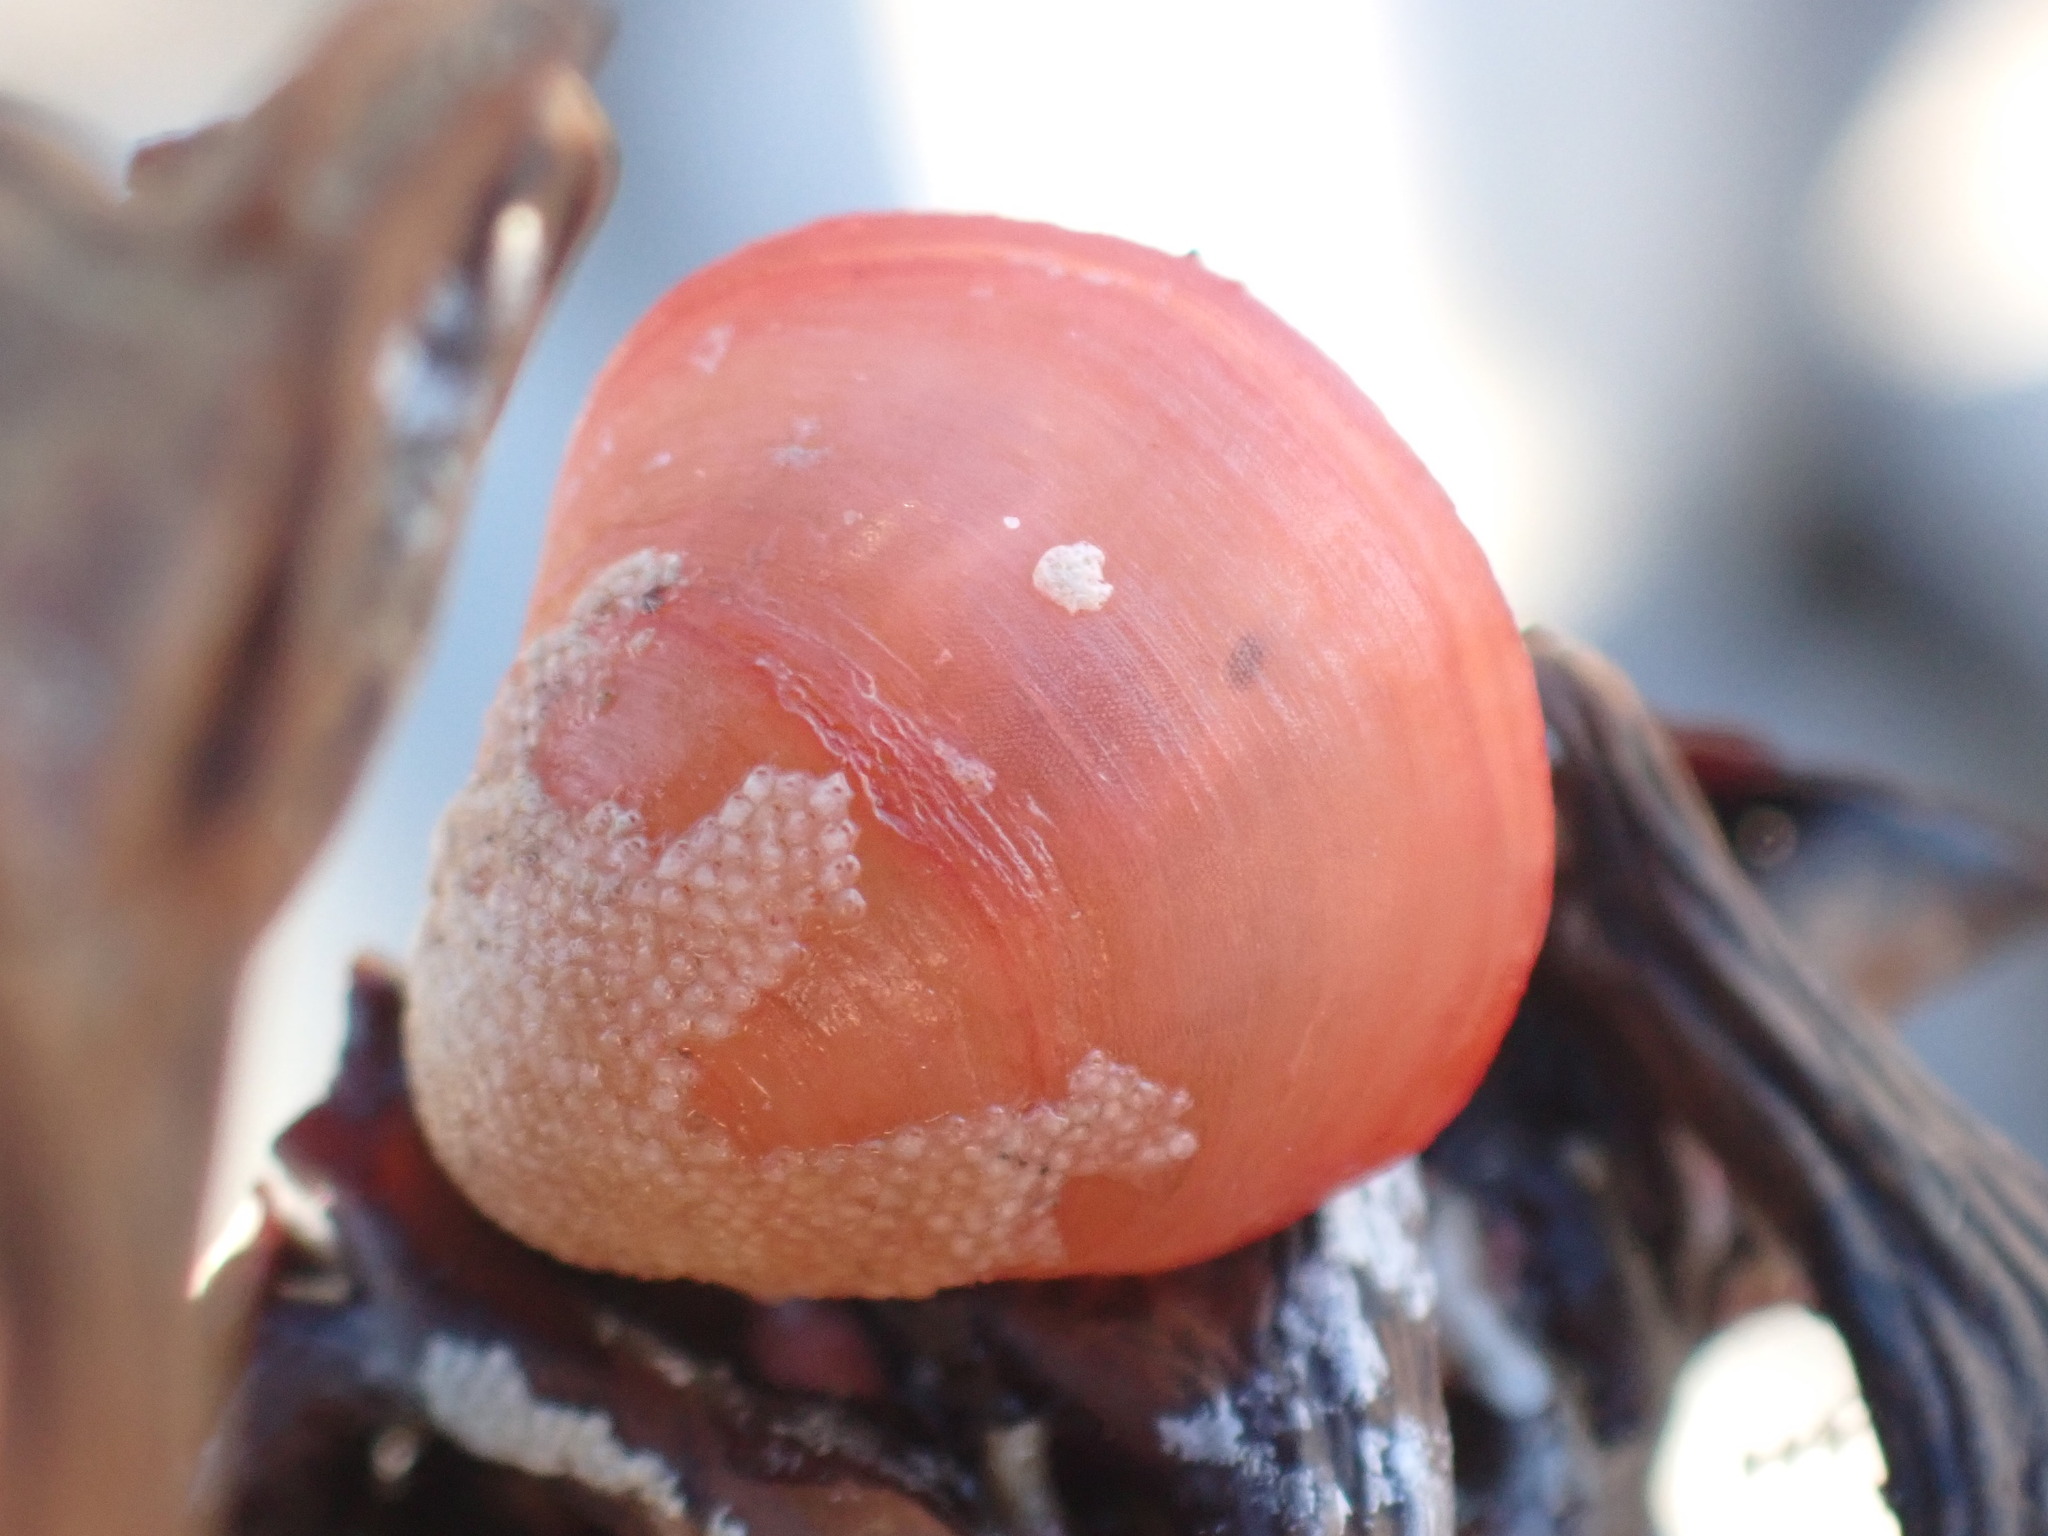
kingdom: Animalia
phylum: Brachiopoda
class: Rhynchonellata
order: Terebratulida
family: Terebratellidae
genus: Calloria
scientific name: Calloria inconspicua
